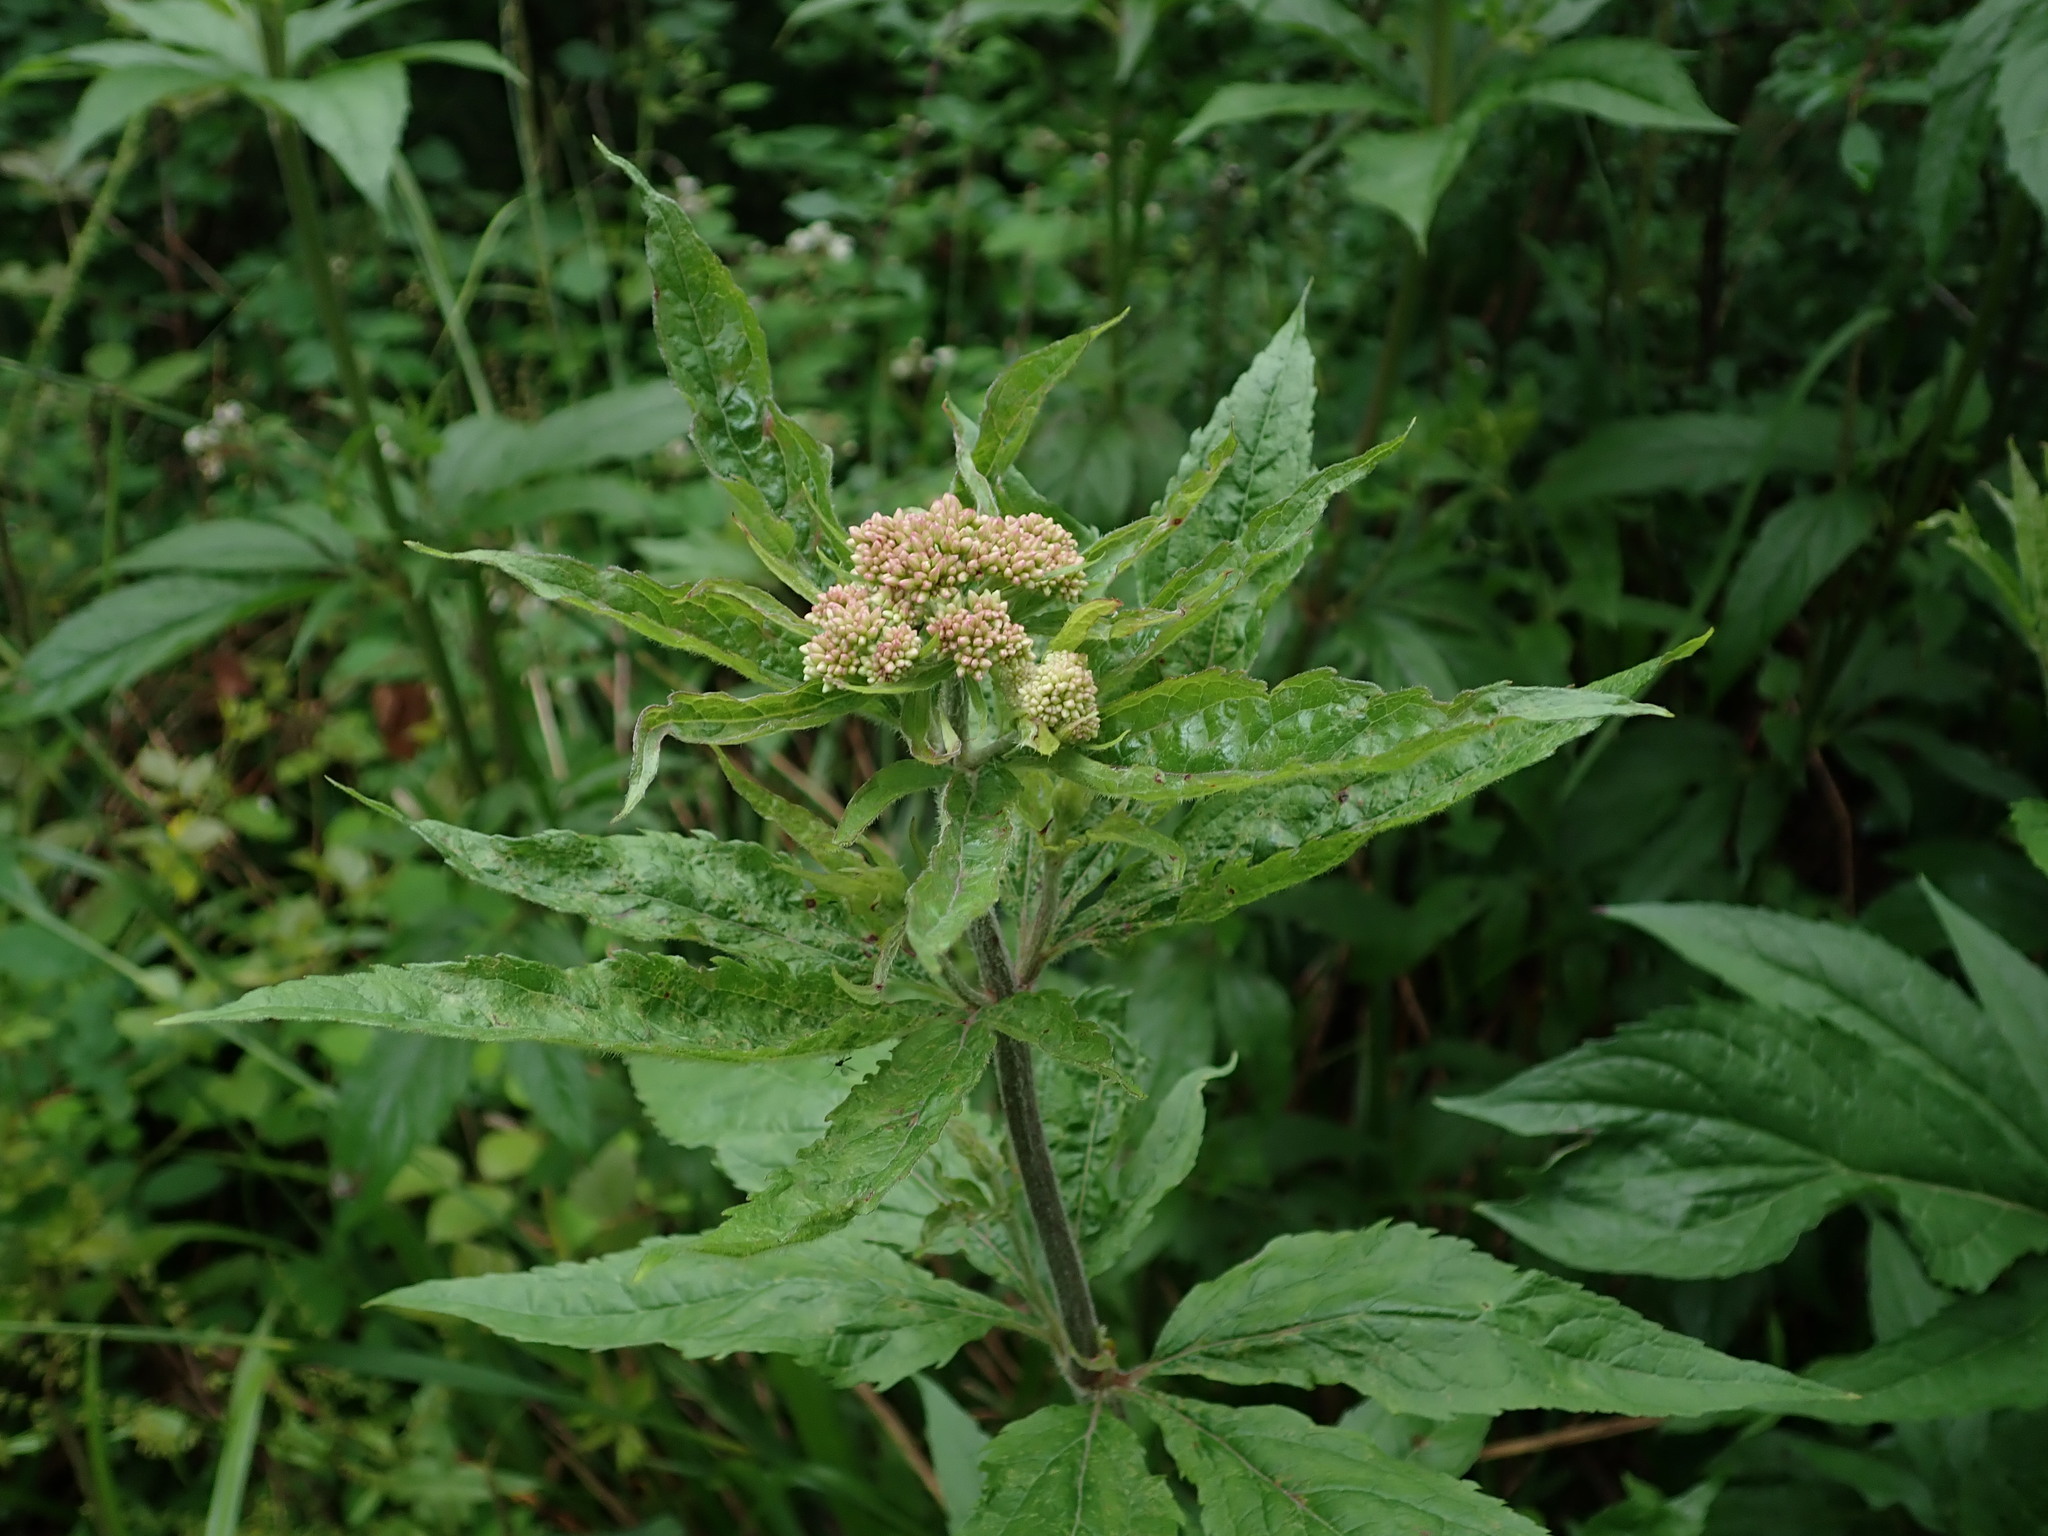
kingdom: Plantae
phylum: Tracheophyta
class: Magnoliopsida
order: Asterales
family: Asteraceae
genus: Eupatorium
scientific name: Eupatorium cannabinum
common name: Hemp-agrimony
